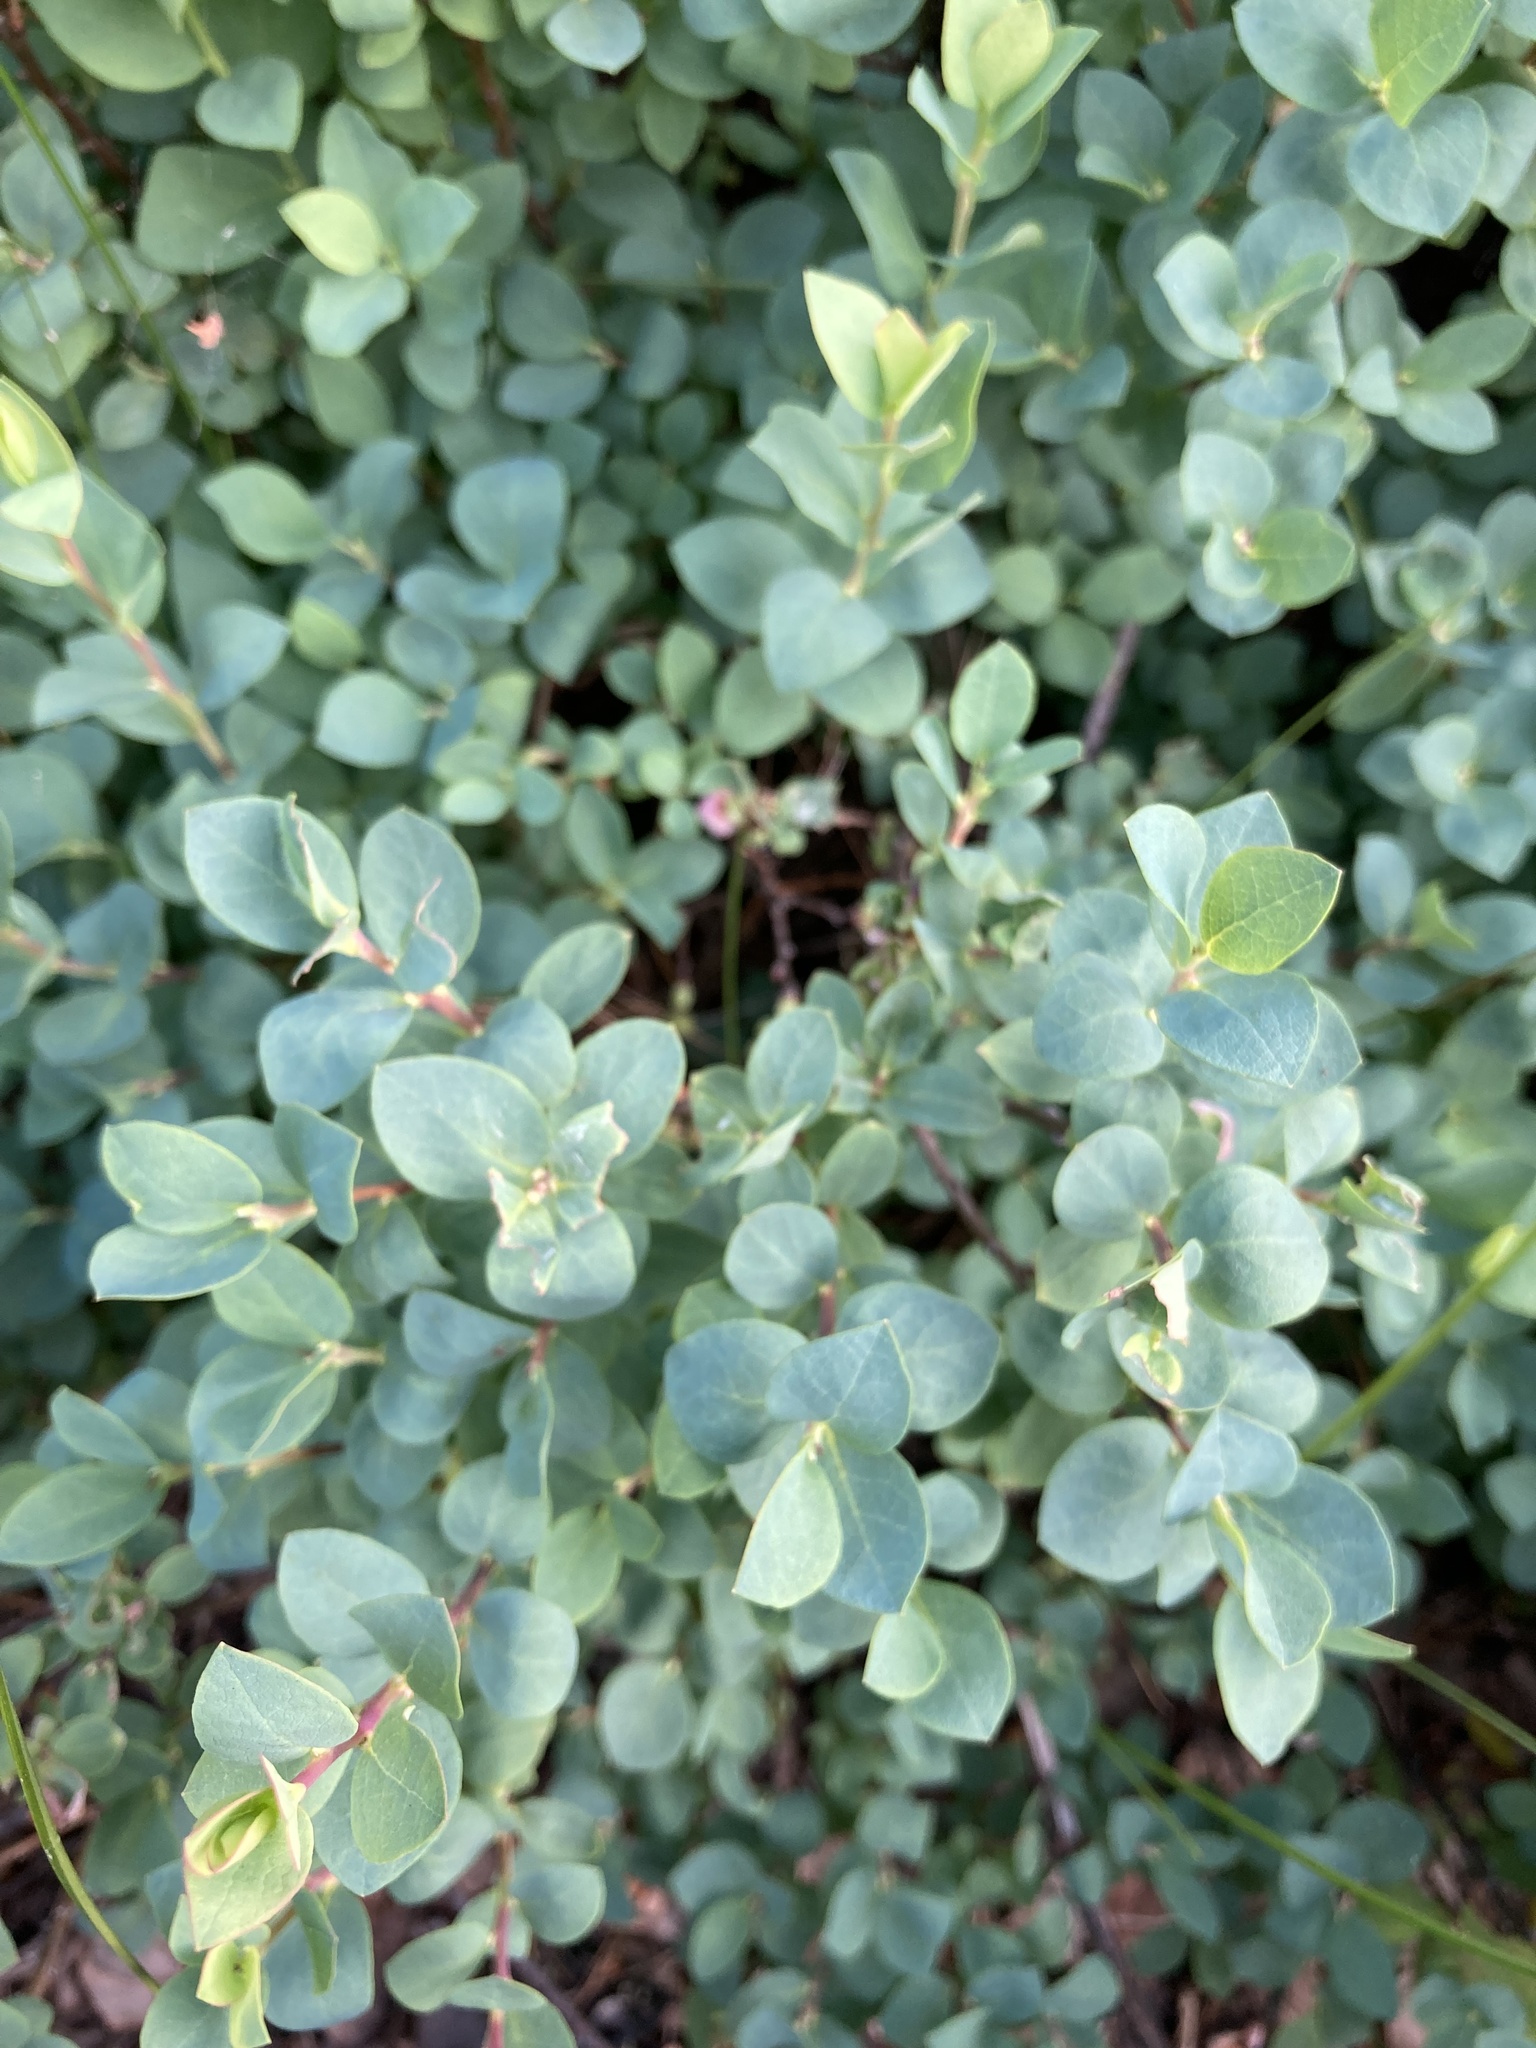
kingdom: Plantae
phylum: Tracheophyta
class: Magnoliopsida
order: Ericales
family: Ericaceae
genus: Vaccinium
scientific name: Vaccinium uliginosum
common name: Bog bilberry
